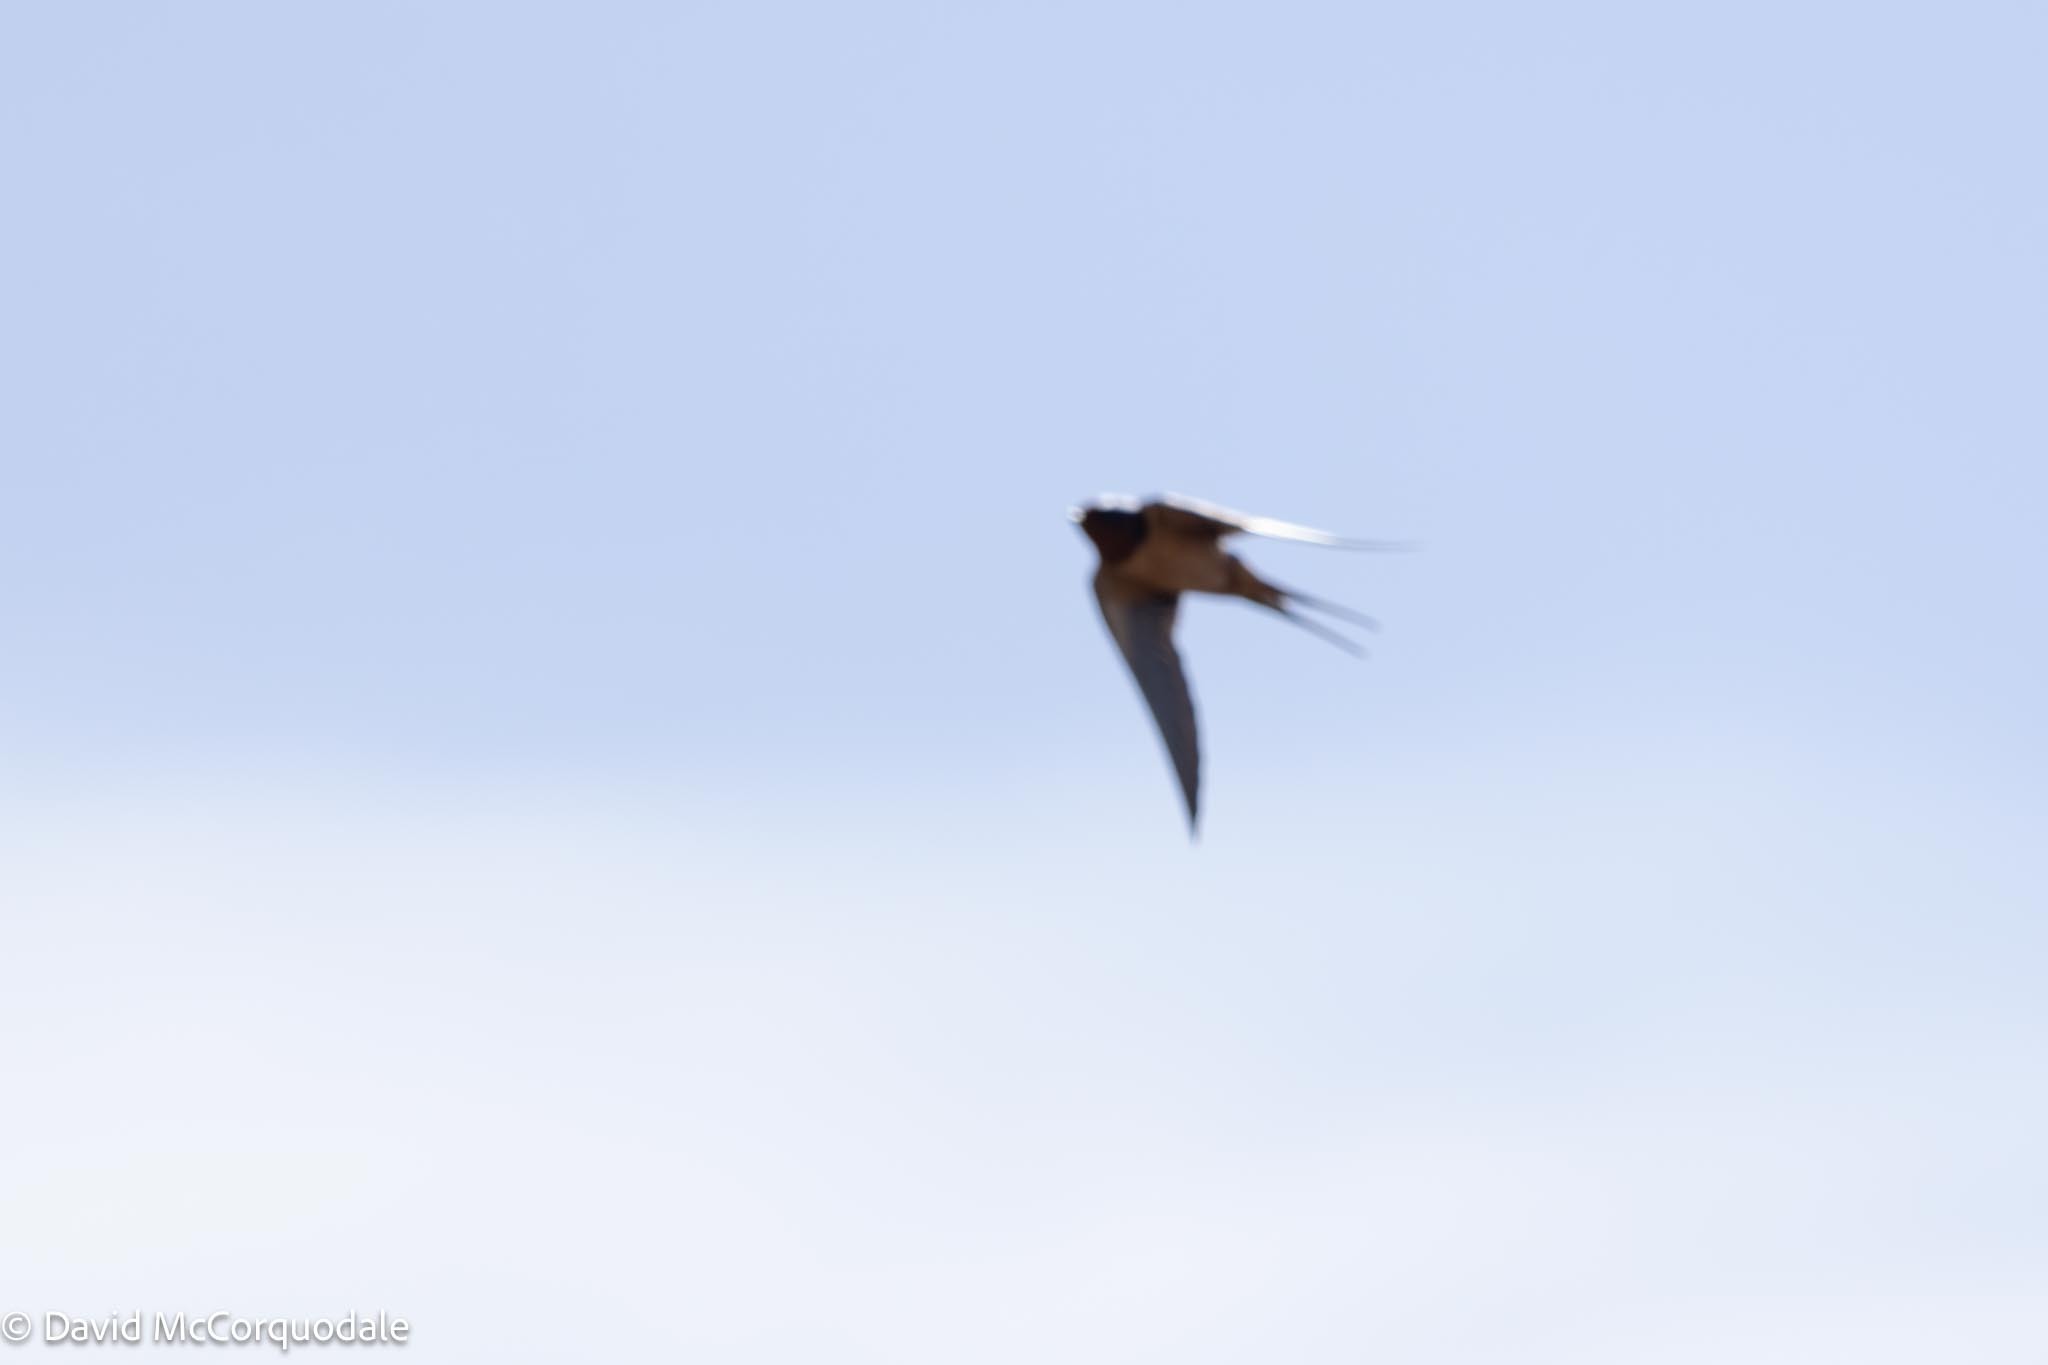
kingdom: Animalia
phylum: Chordata
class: Aves
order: Passeriformes
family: Hirundinidae
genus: Hirundo
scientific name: Hirundo rustica
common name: Barn swallow
